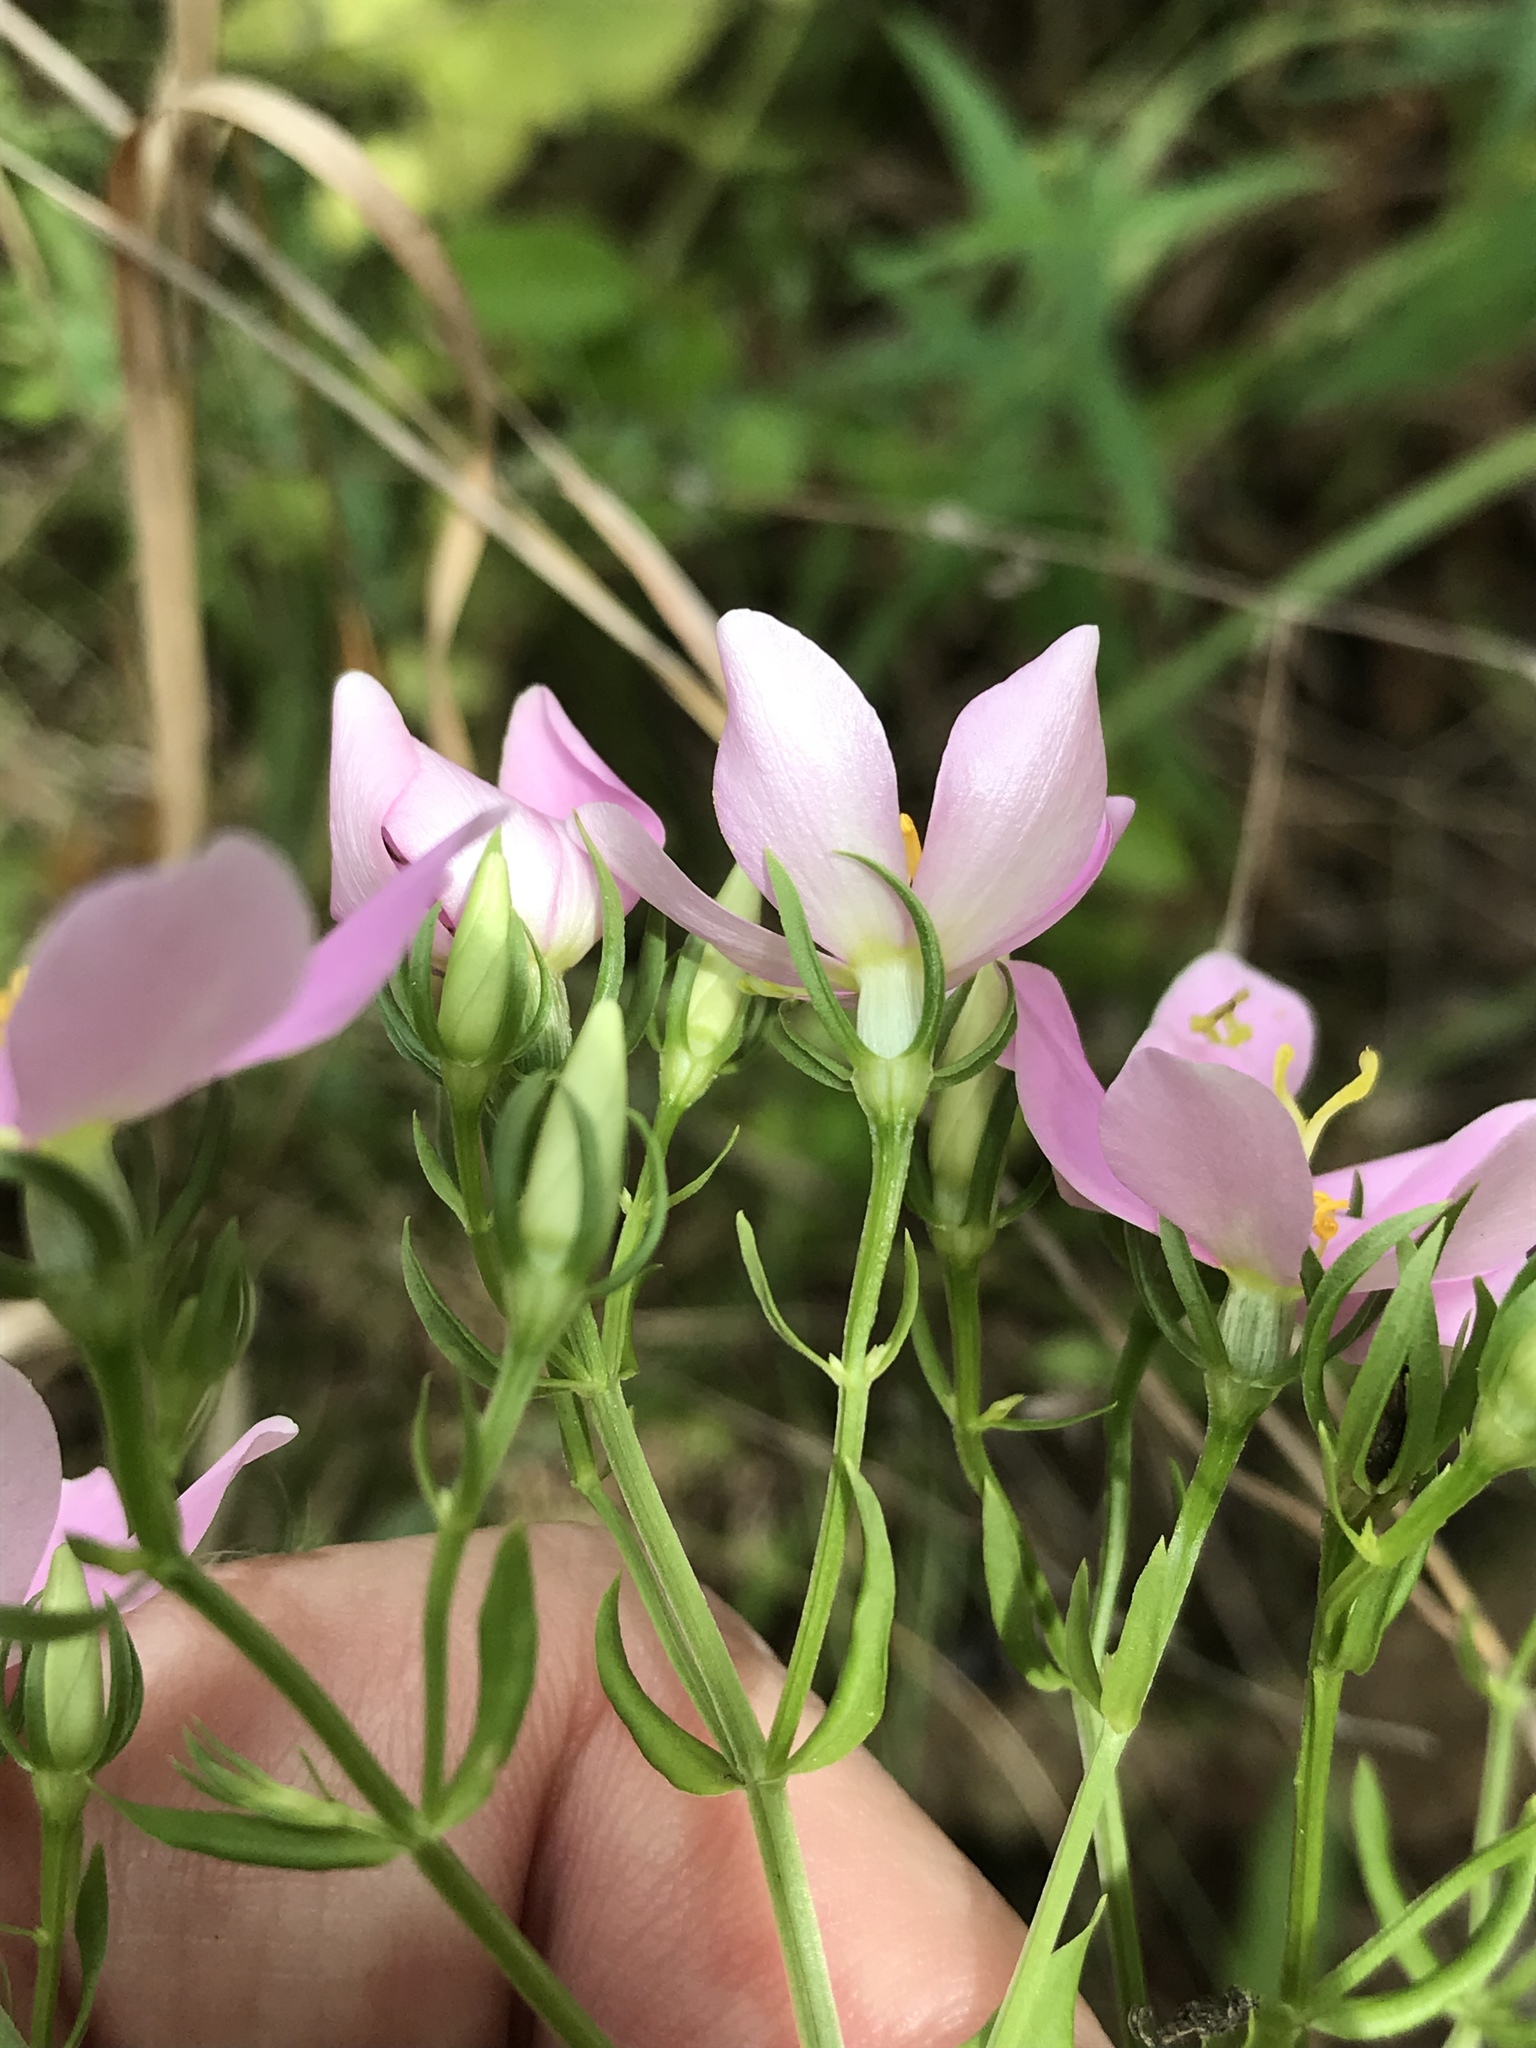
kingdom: Plantae
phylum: Tracheophyta
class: Magnoliopsida
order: Gentianales
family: Gentianaceae
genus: Sabatia
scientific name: Sabatia angularis
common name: Rose-pink
